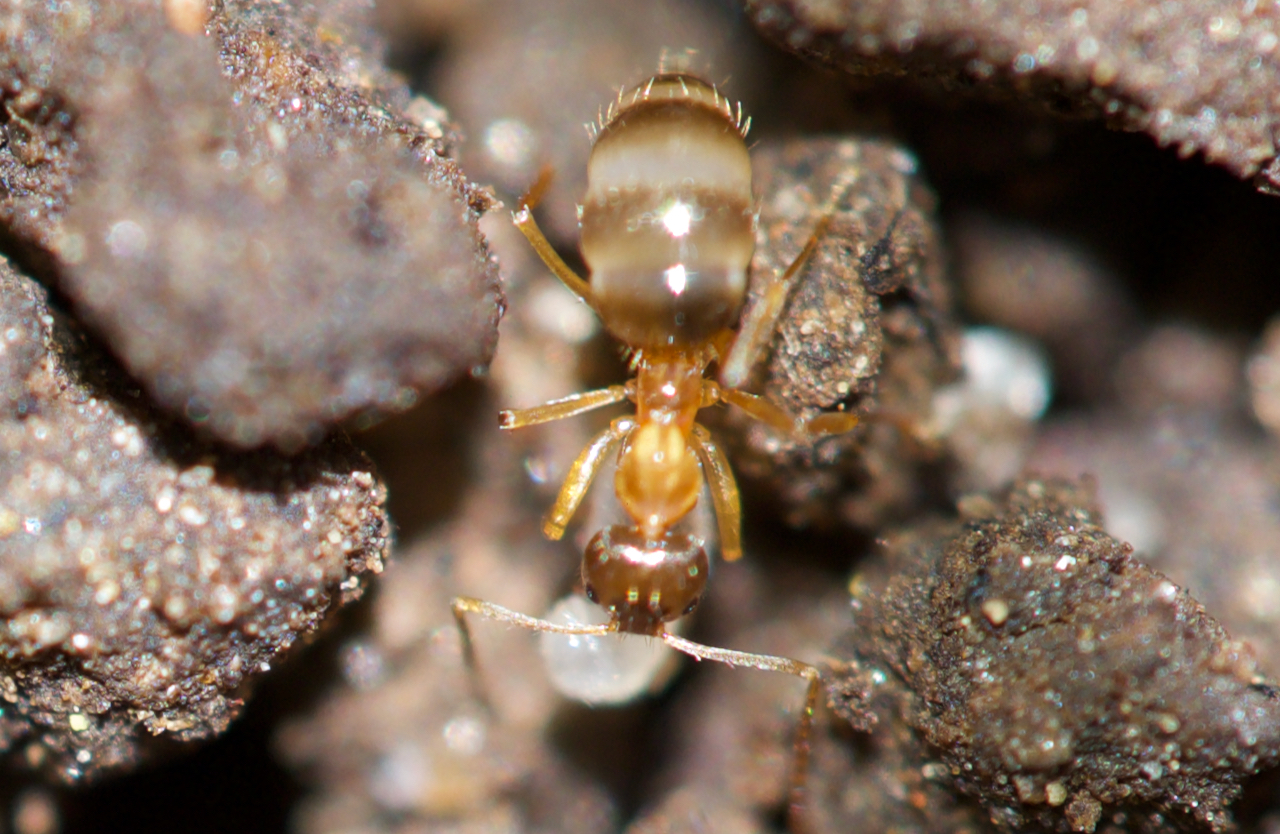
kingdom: Animalia
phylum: Arthropoda
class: Insecta
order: Hymenoptera
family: Formicidae
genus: Paratrechina
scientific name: Paratrechina flavipes
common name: Eastern asian formicine ant
